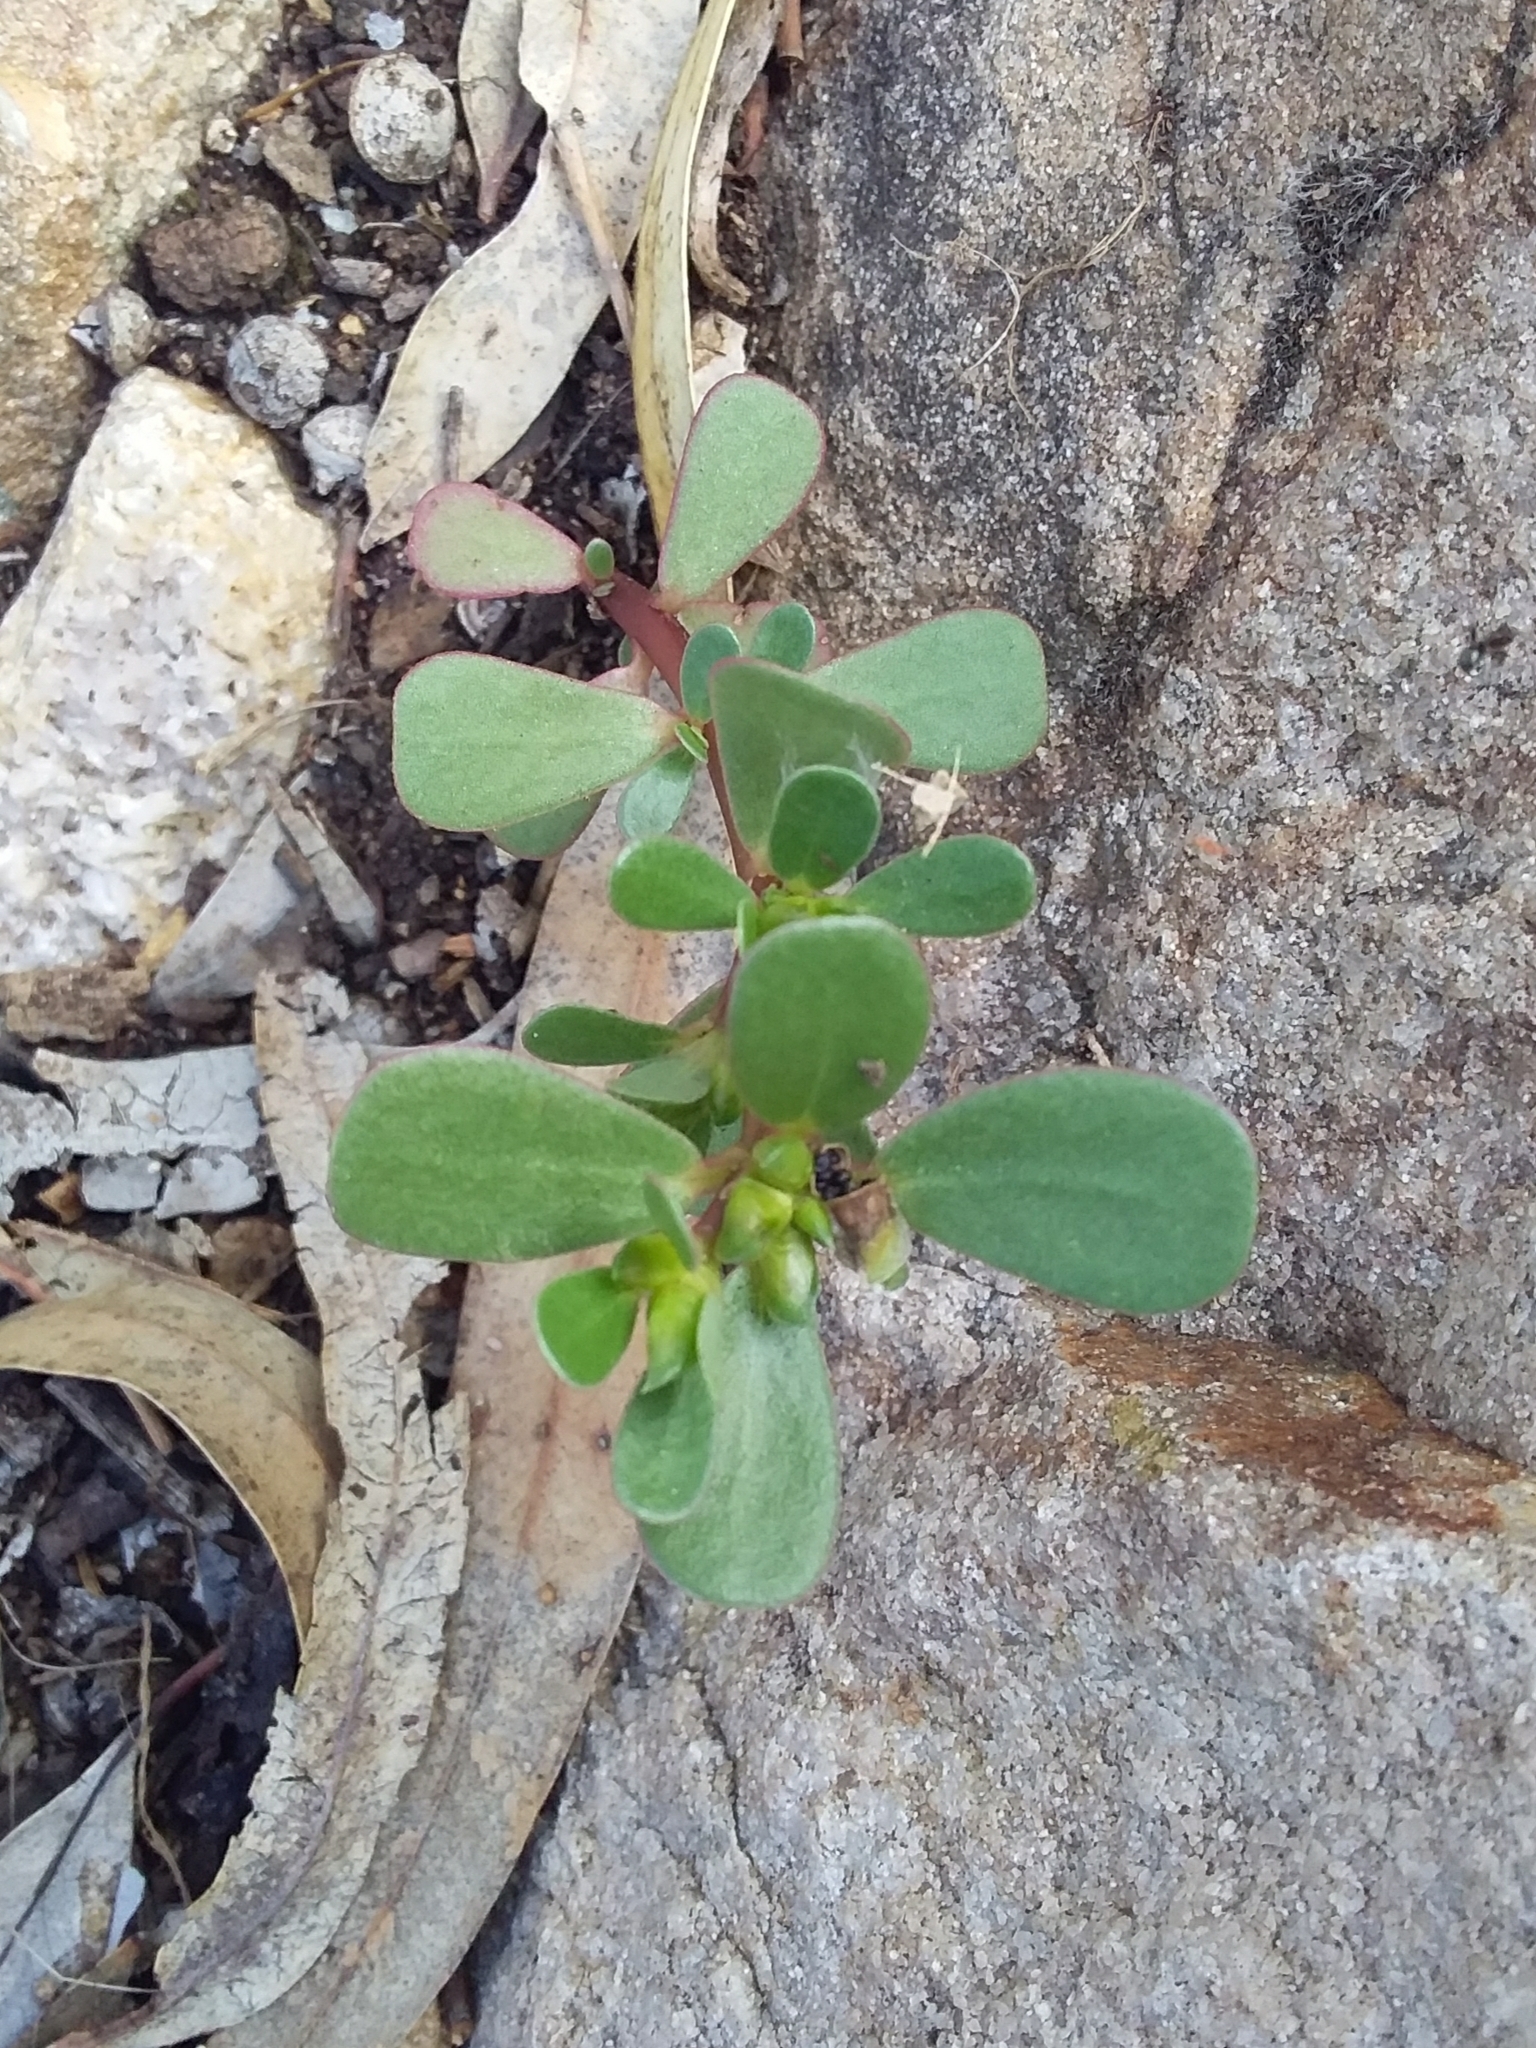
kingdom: Plantae
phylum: Tracheophyta
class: Magnoliopsida
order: Caryophyllales
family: Portulacaceae
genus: Portulaca
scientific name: Portulaca oleracea
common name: Common purslane
